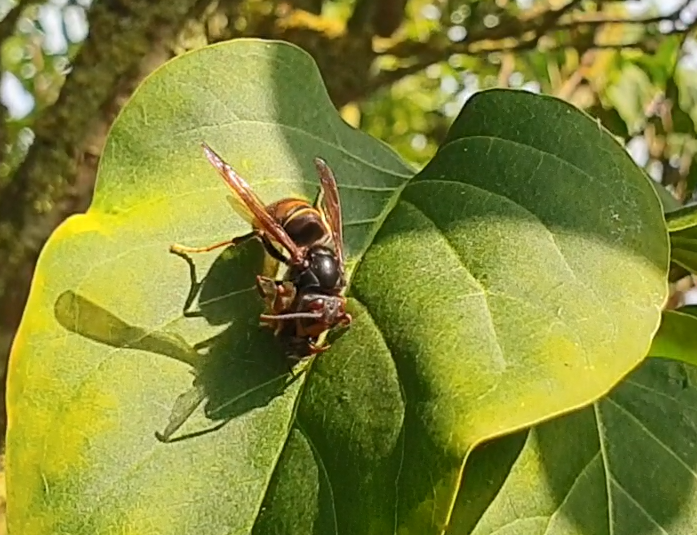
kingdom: Animalia
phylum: Arthropoda
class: Insecta
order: Hymenoptera
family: Vespidae
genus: Vespa
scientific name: Vespa velutina
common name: Asian hornet
